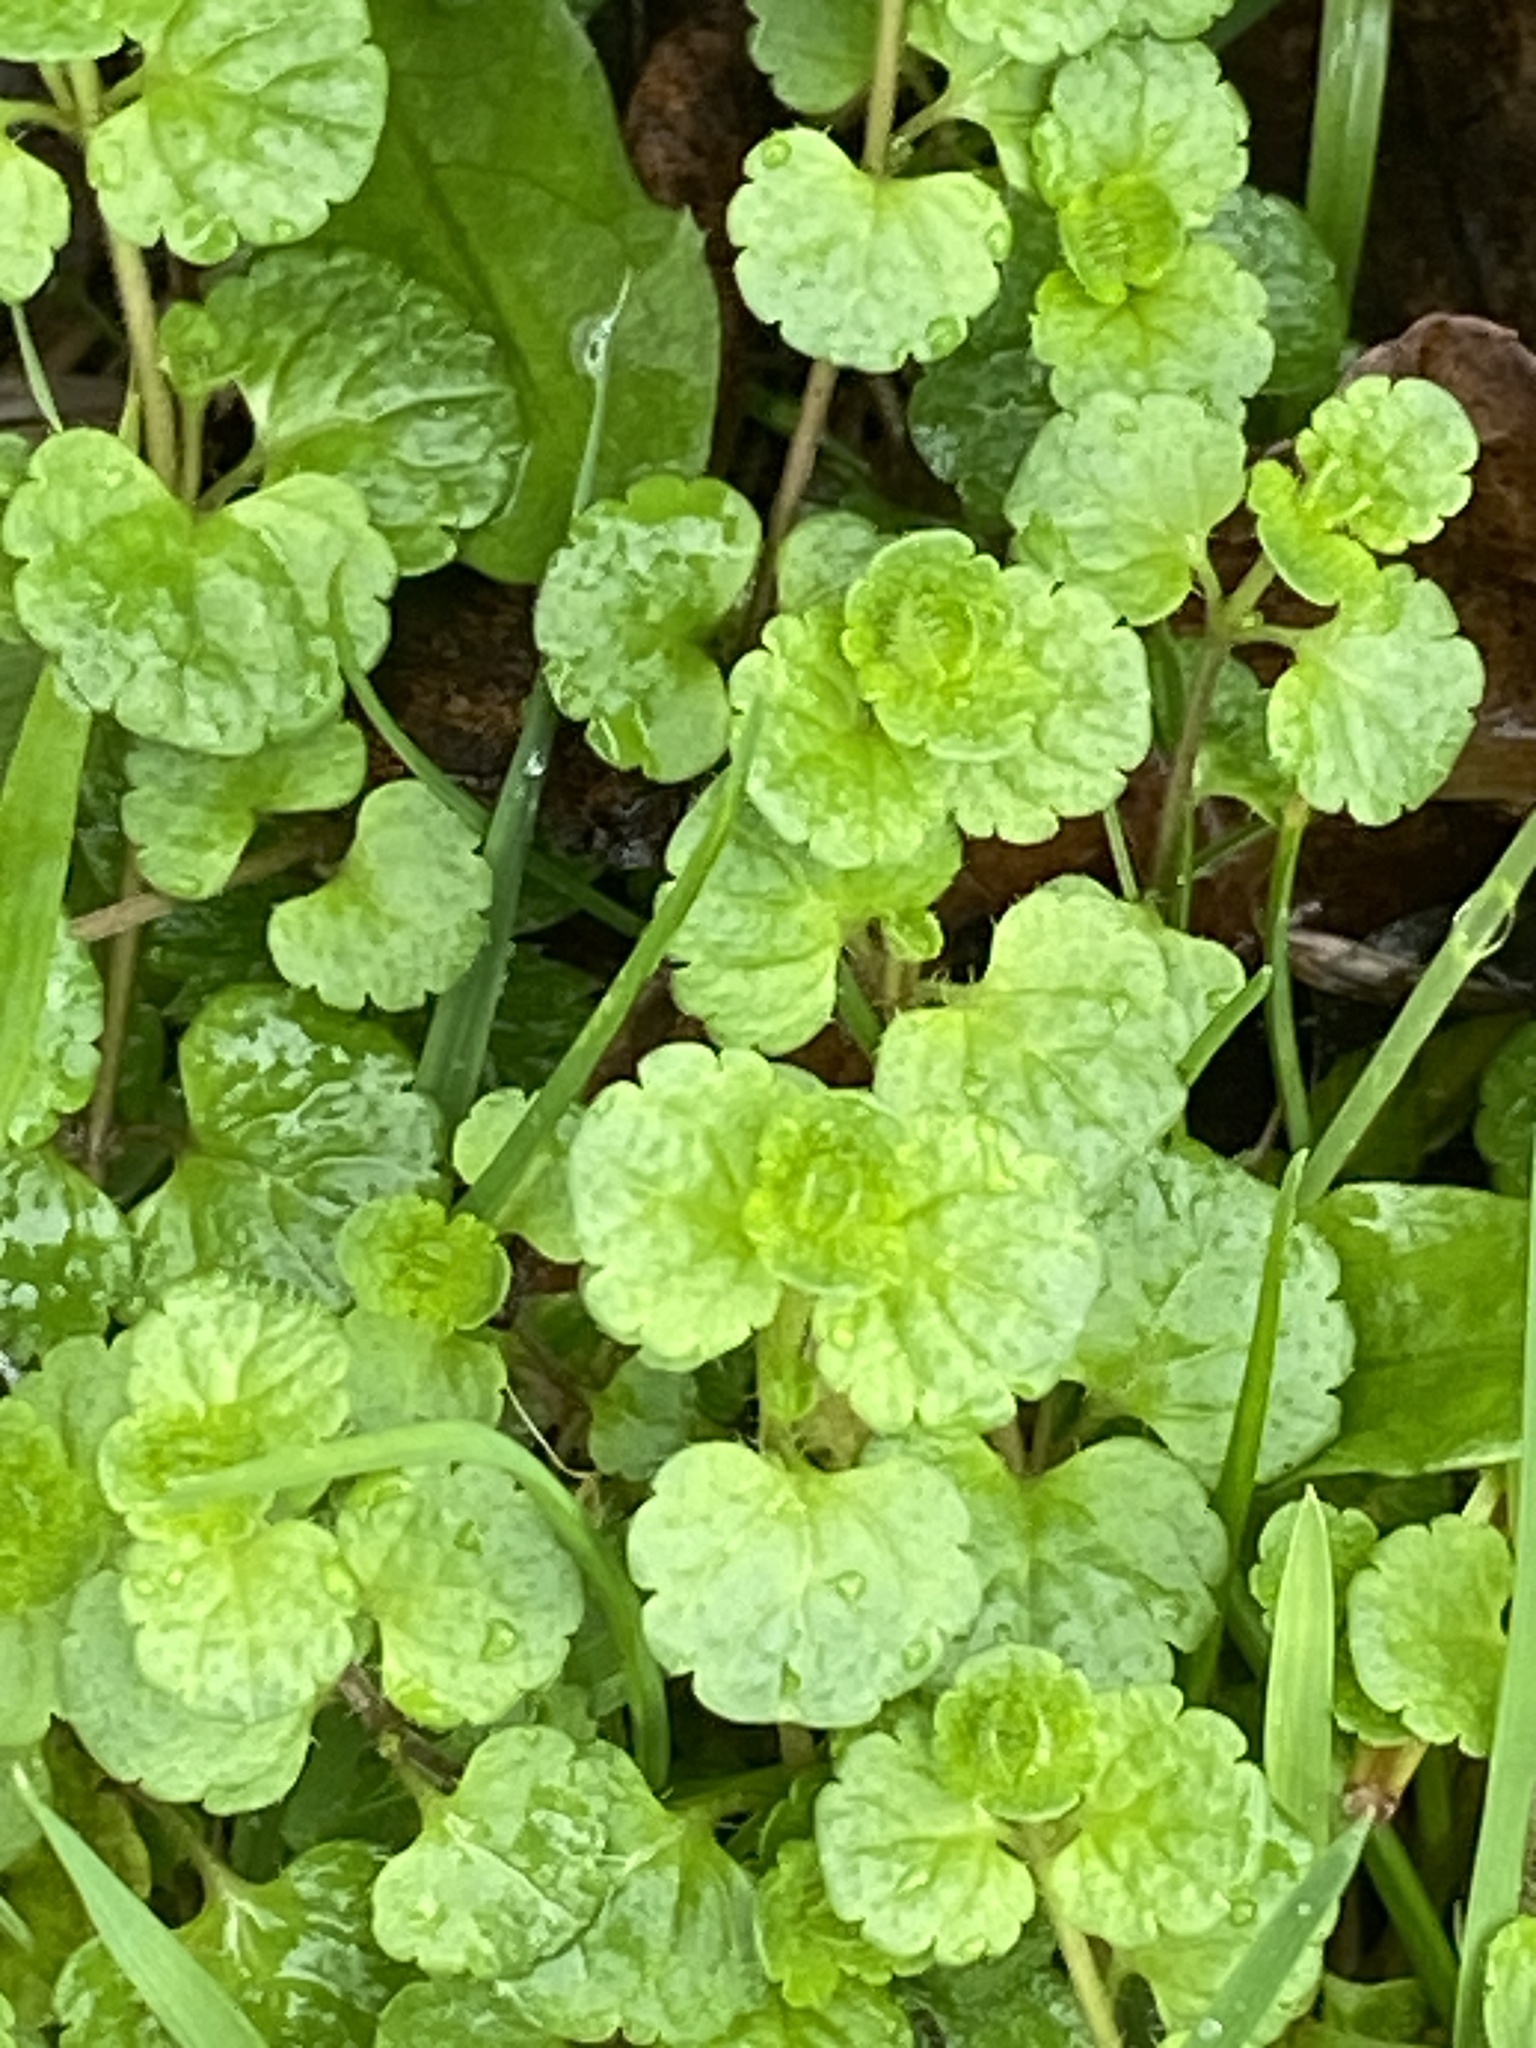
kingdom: Plantae
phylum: Tracheophyta
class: Magnoliopsida
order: Lamiales
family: Plantaginaceae
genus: Veronica
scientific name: Veronica filiformis
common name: Slender speedwell
